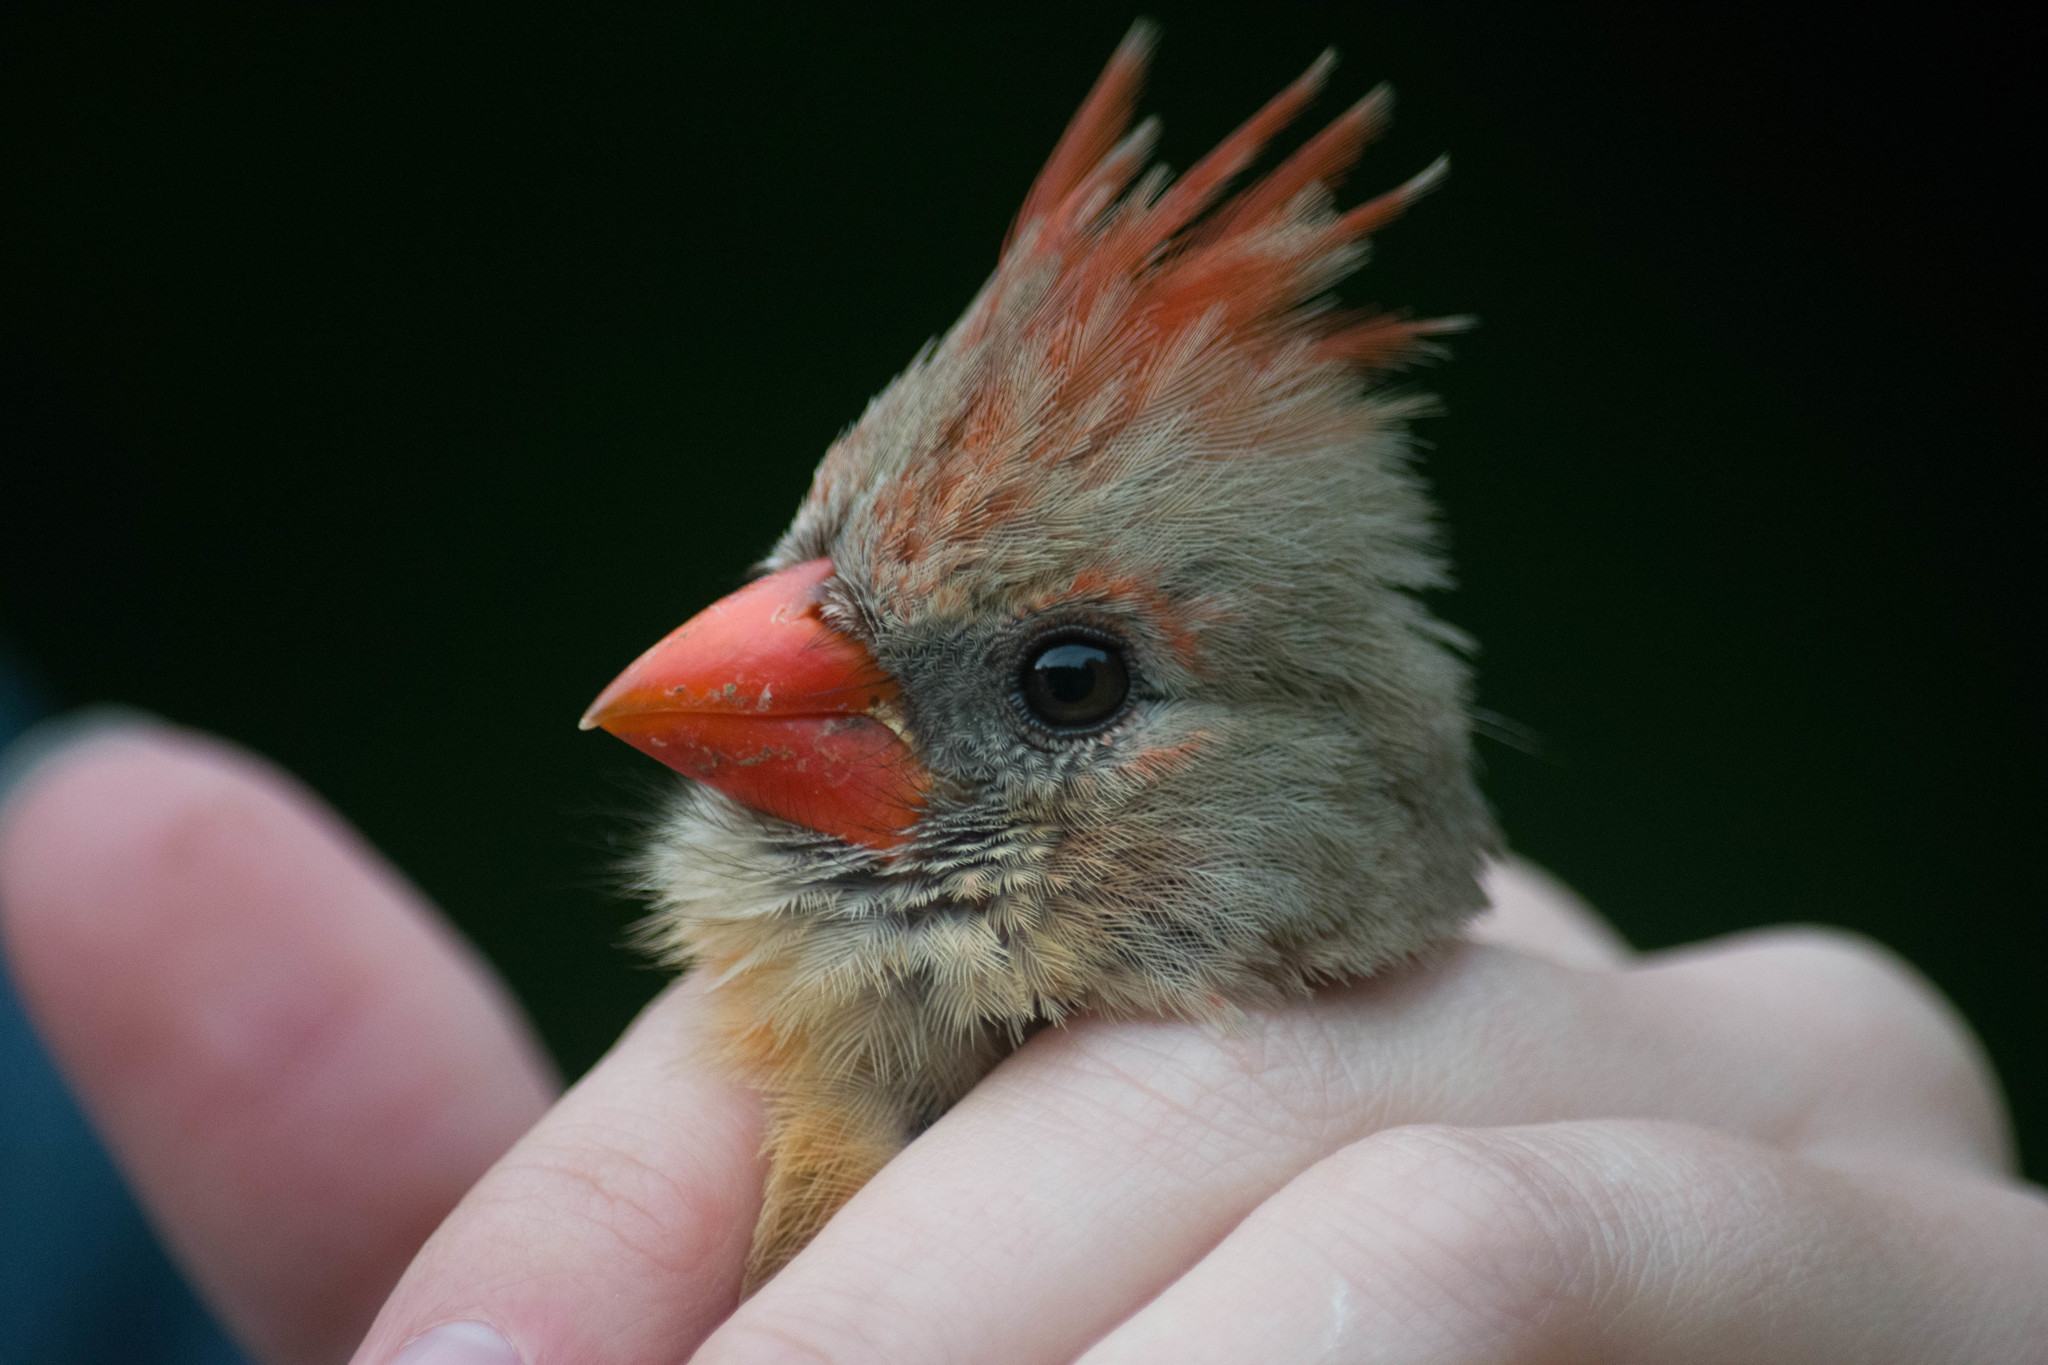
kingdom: Animalia
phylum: Chordata
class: Aves
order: Passeriformes
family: Cardinalidae
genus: Cardinalis
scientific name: Cardinalis cardinalis
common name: Northern cardinal
